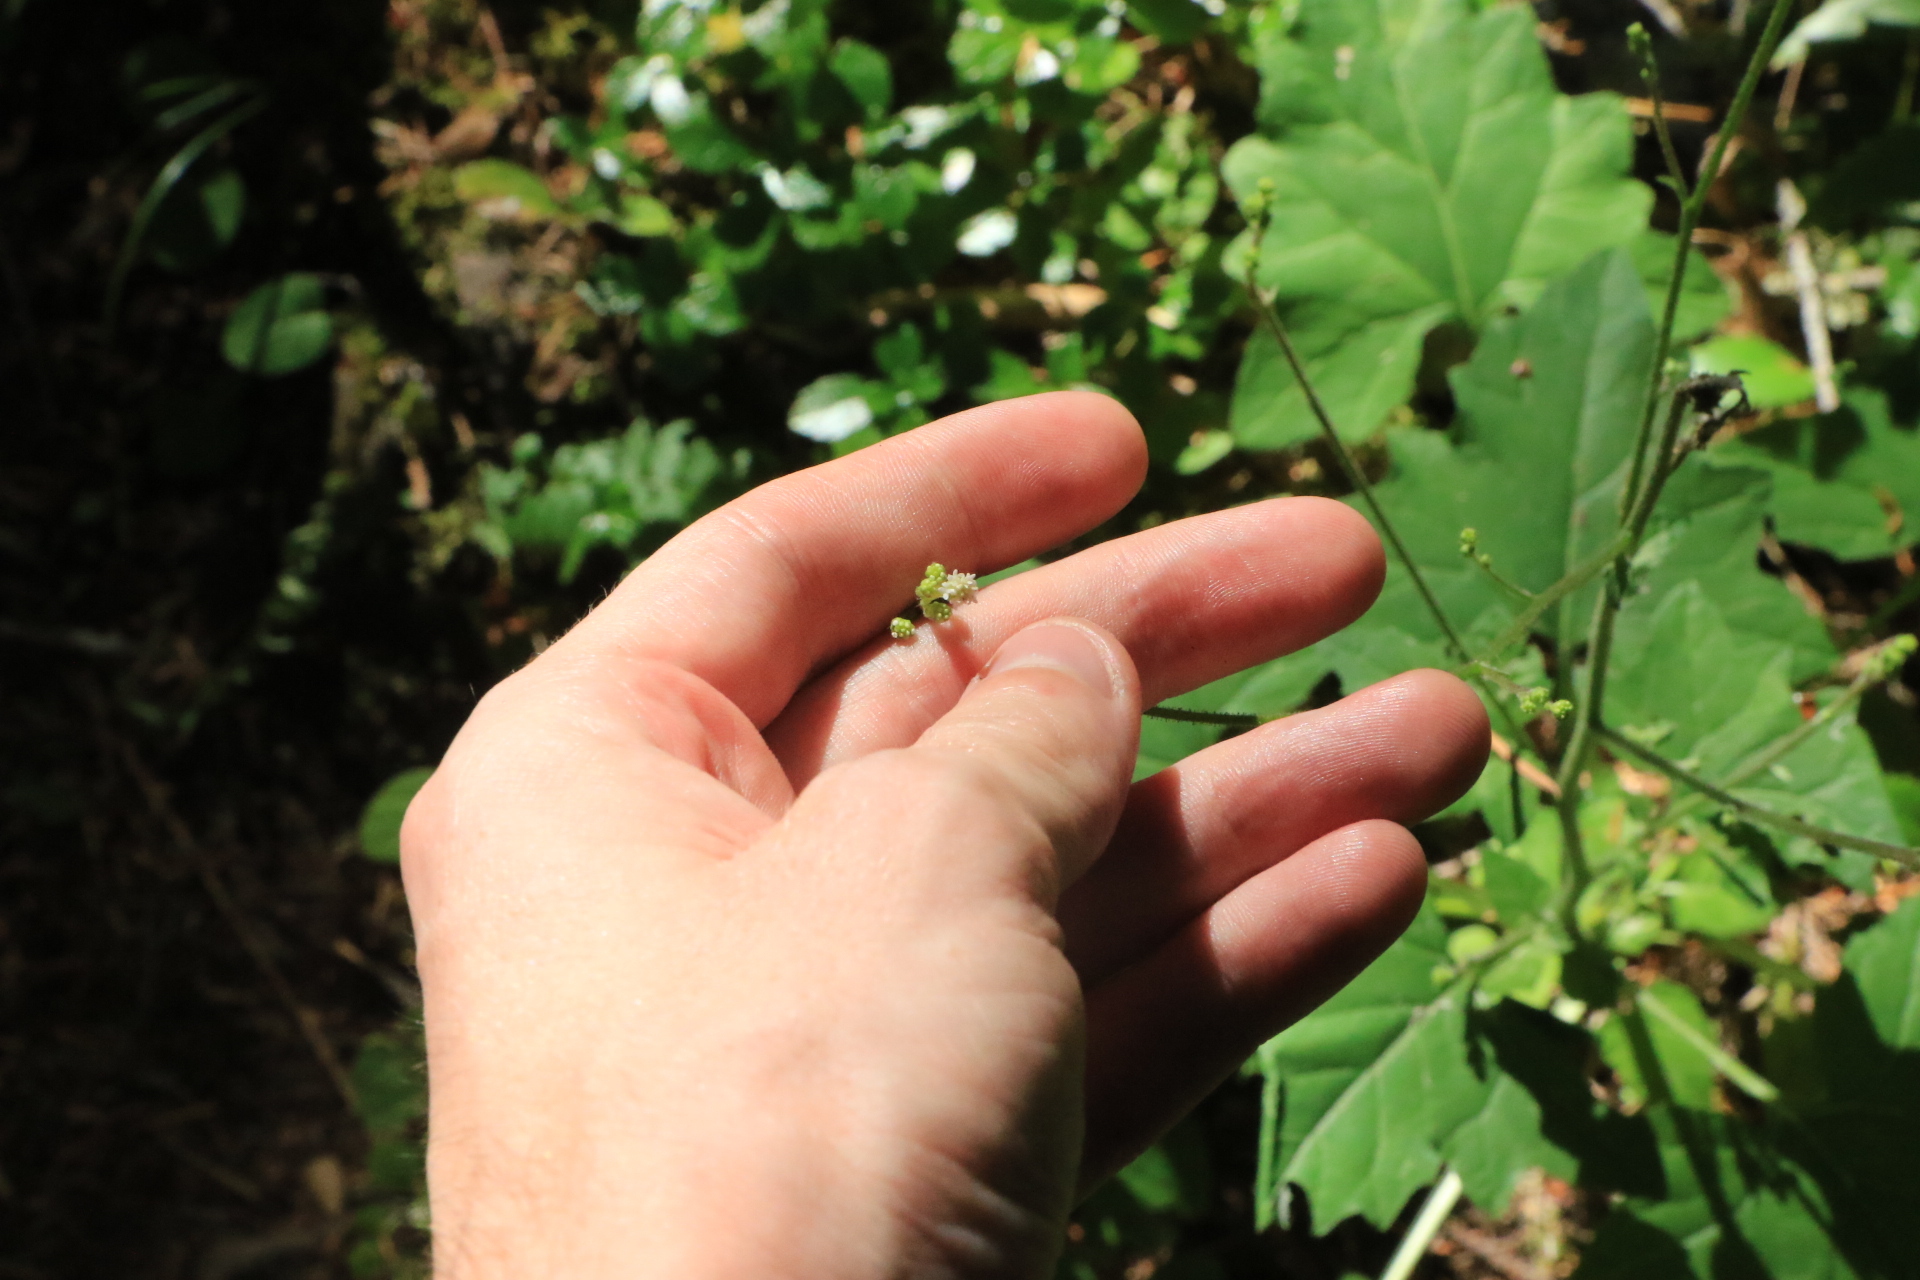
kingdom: Plantae
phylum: Tracheophyta
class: Magnoliopsida
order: Asterales
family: Asteraceae
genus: Adenocaulon
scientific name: Adenocaulon bicolor
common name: Trailplant
